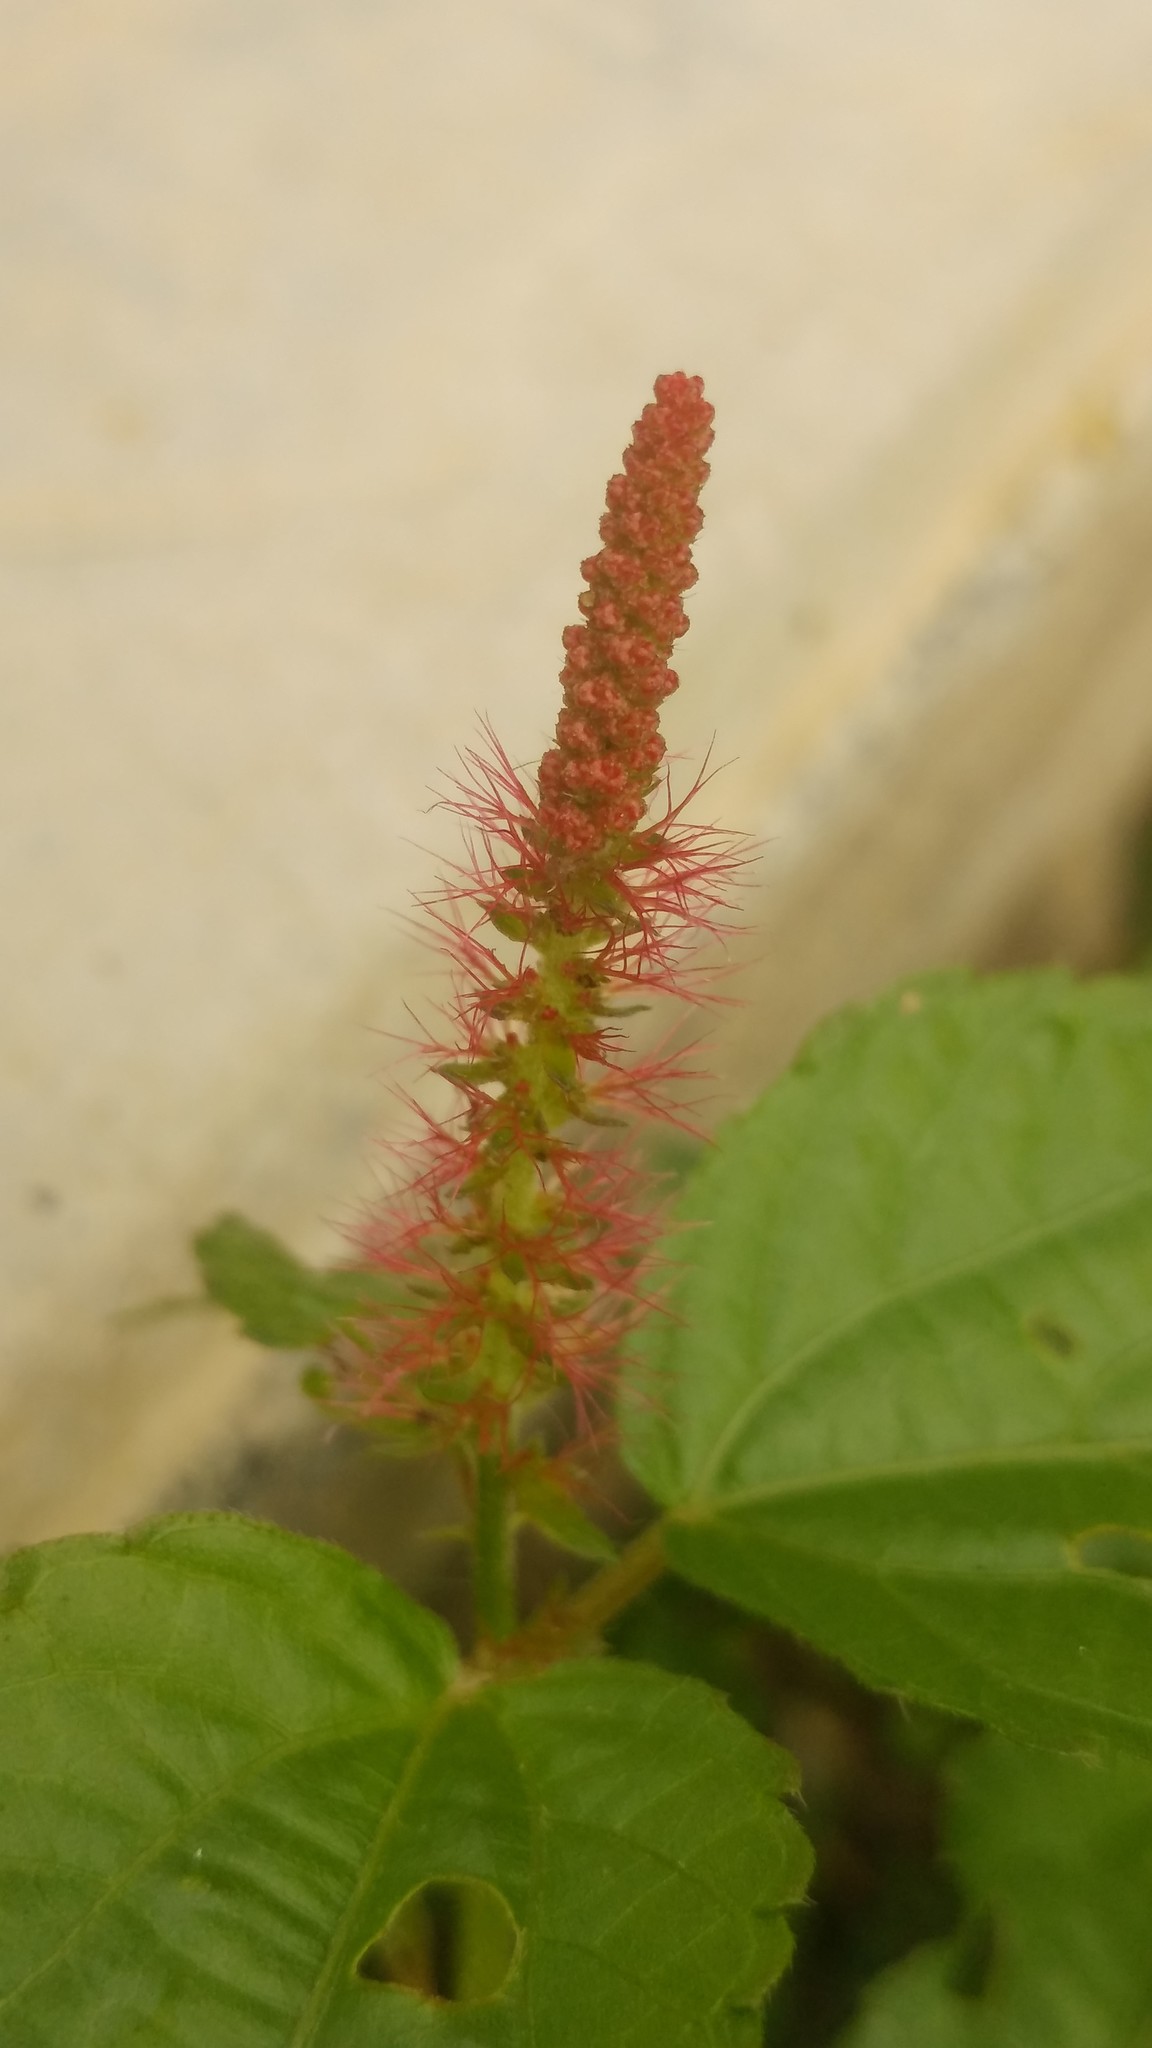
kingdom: Plantae
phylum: Tracheophyta
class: Magnoliopsida
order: Malpighiales
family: Euphorbiaceae
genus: Acalypha
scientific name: Acalypha phleoides
